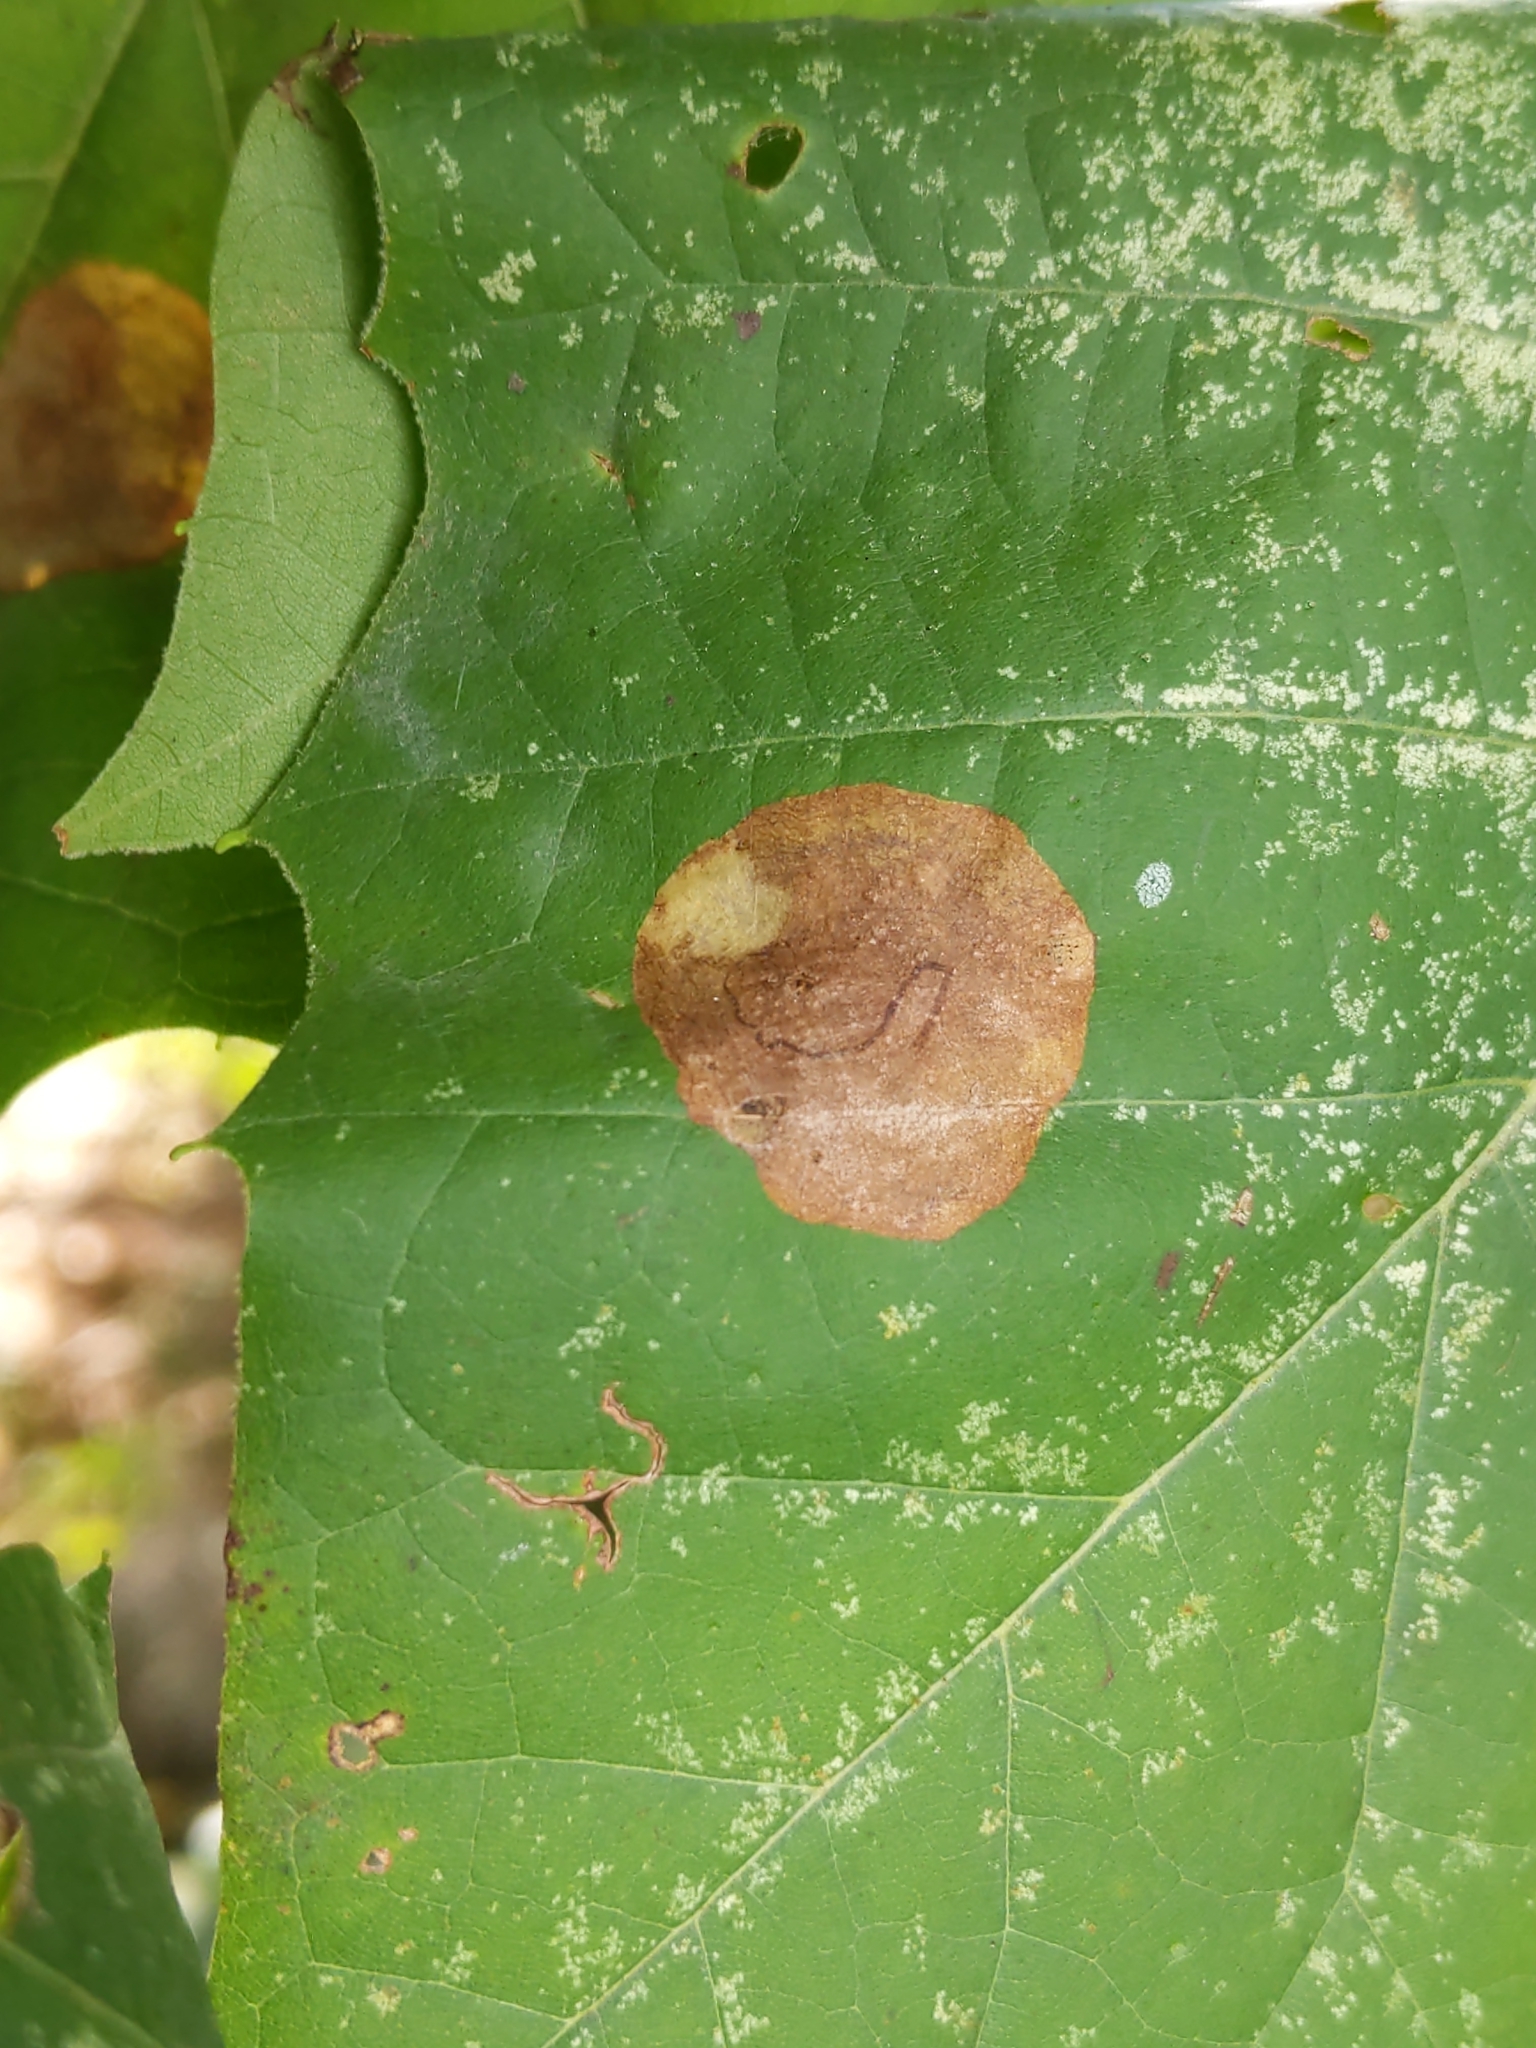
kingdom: Animalia
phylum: Arthropoda
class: Insecta
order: Lepidoptera
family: Nepticulidae
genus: Ectoedemia
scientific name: Ectoedemia platanella
